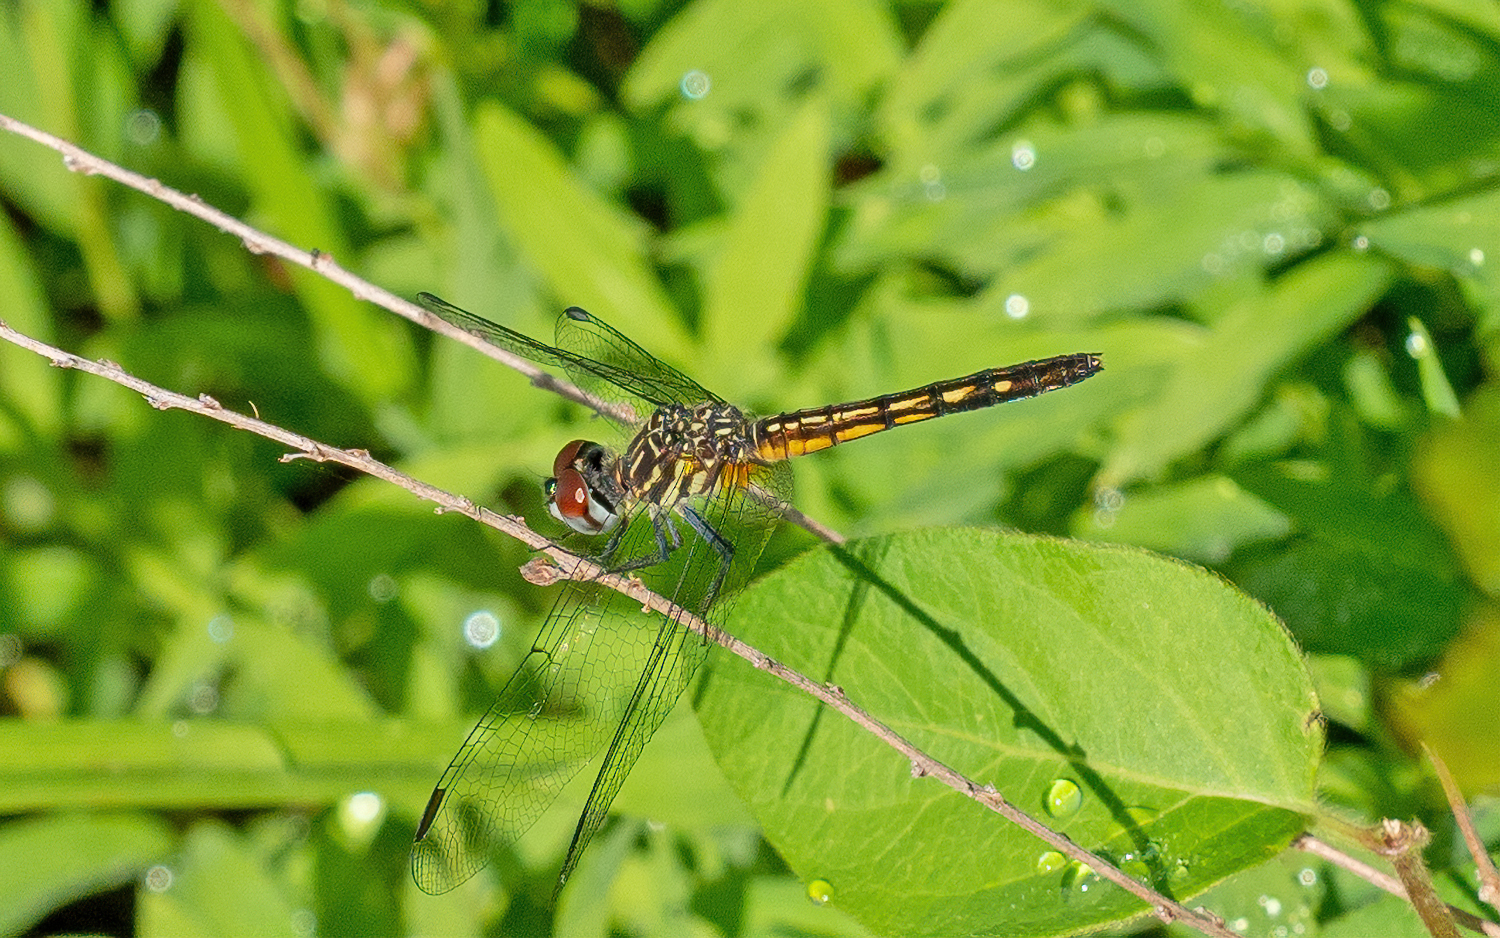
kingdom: Animalia
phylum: Arthropoda
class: Insecta
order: Odonata
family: Libellulidae
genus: Pachydiplax
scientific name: Pachydiplax longipennis
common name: Blue dasher
